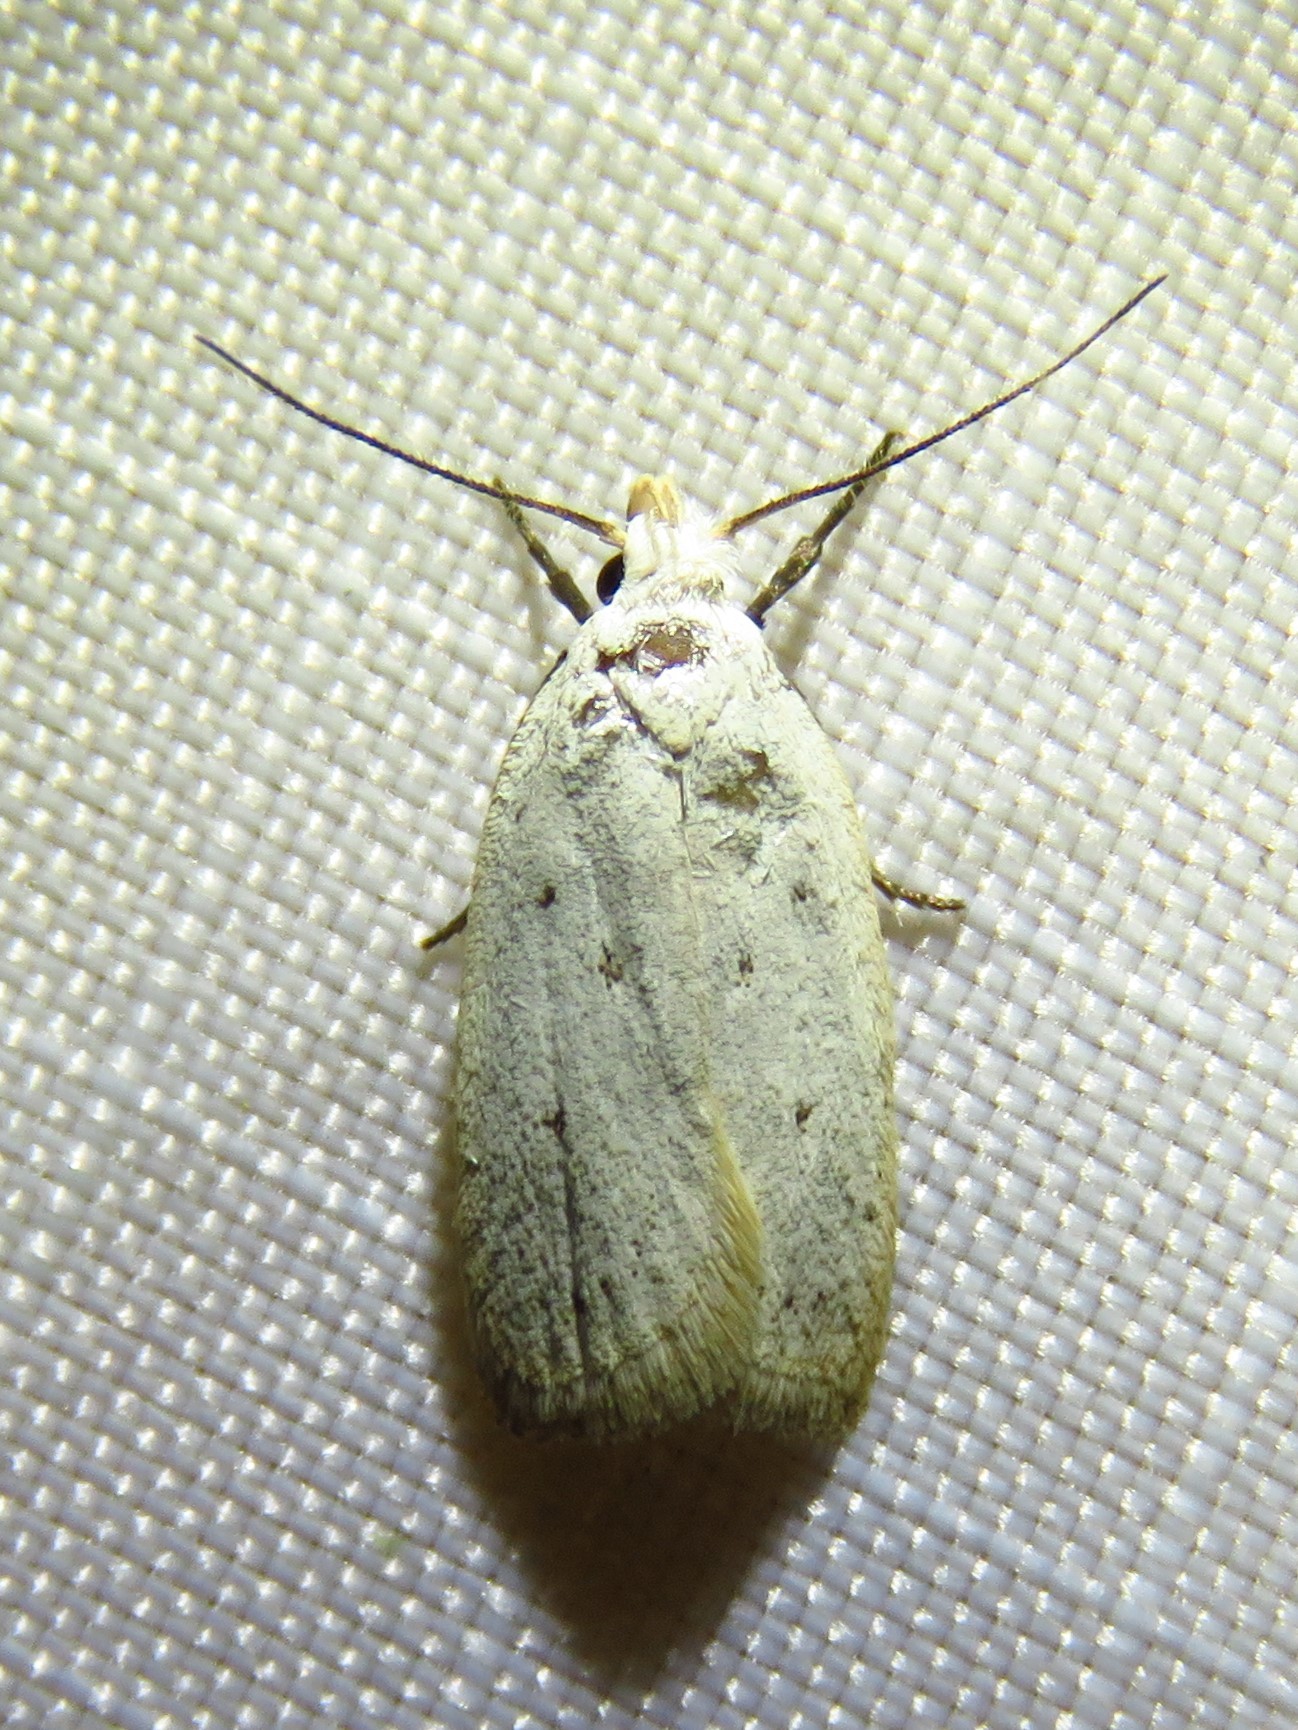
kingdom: Animalia
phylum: Arthropoda
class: Insecta
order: Lepidoptera
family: Oecophoridae
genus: Inga
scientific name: Inga cretacea
